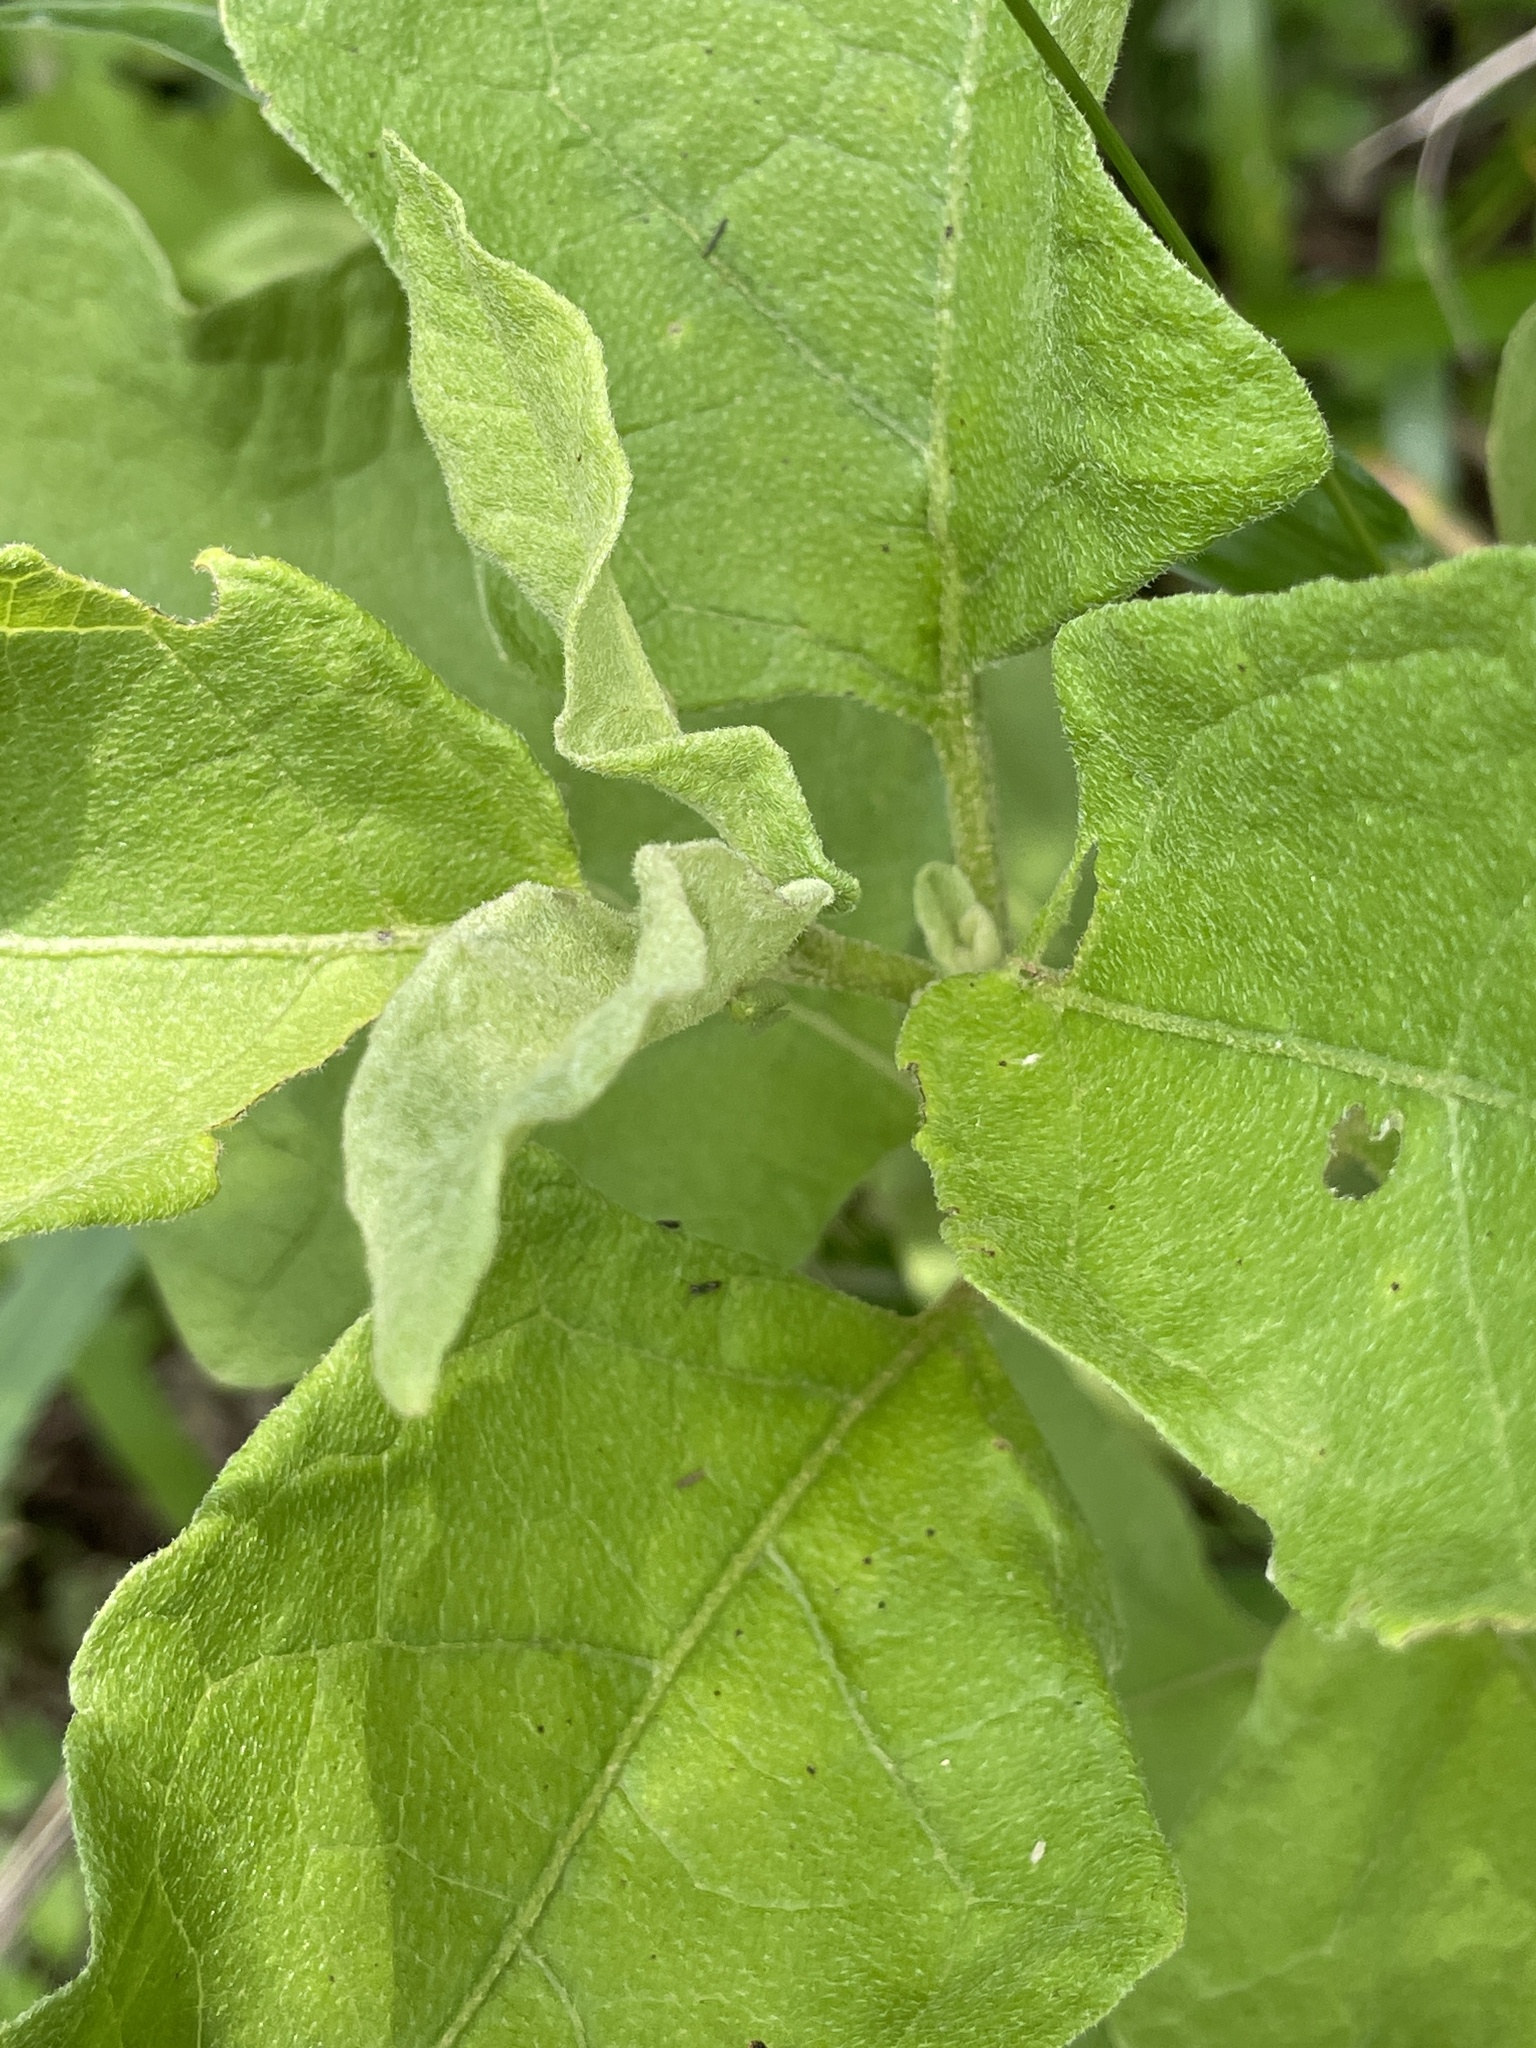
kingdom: Plantae
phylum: Tracheophyta
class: Magnoliopsida
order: Solanales
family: Solanaceae
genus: Solanum
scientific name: Solanum dimidiatum
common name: Carolina horse-nettle
